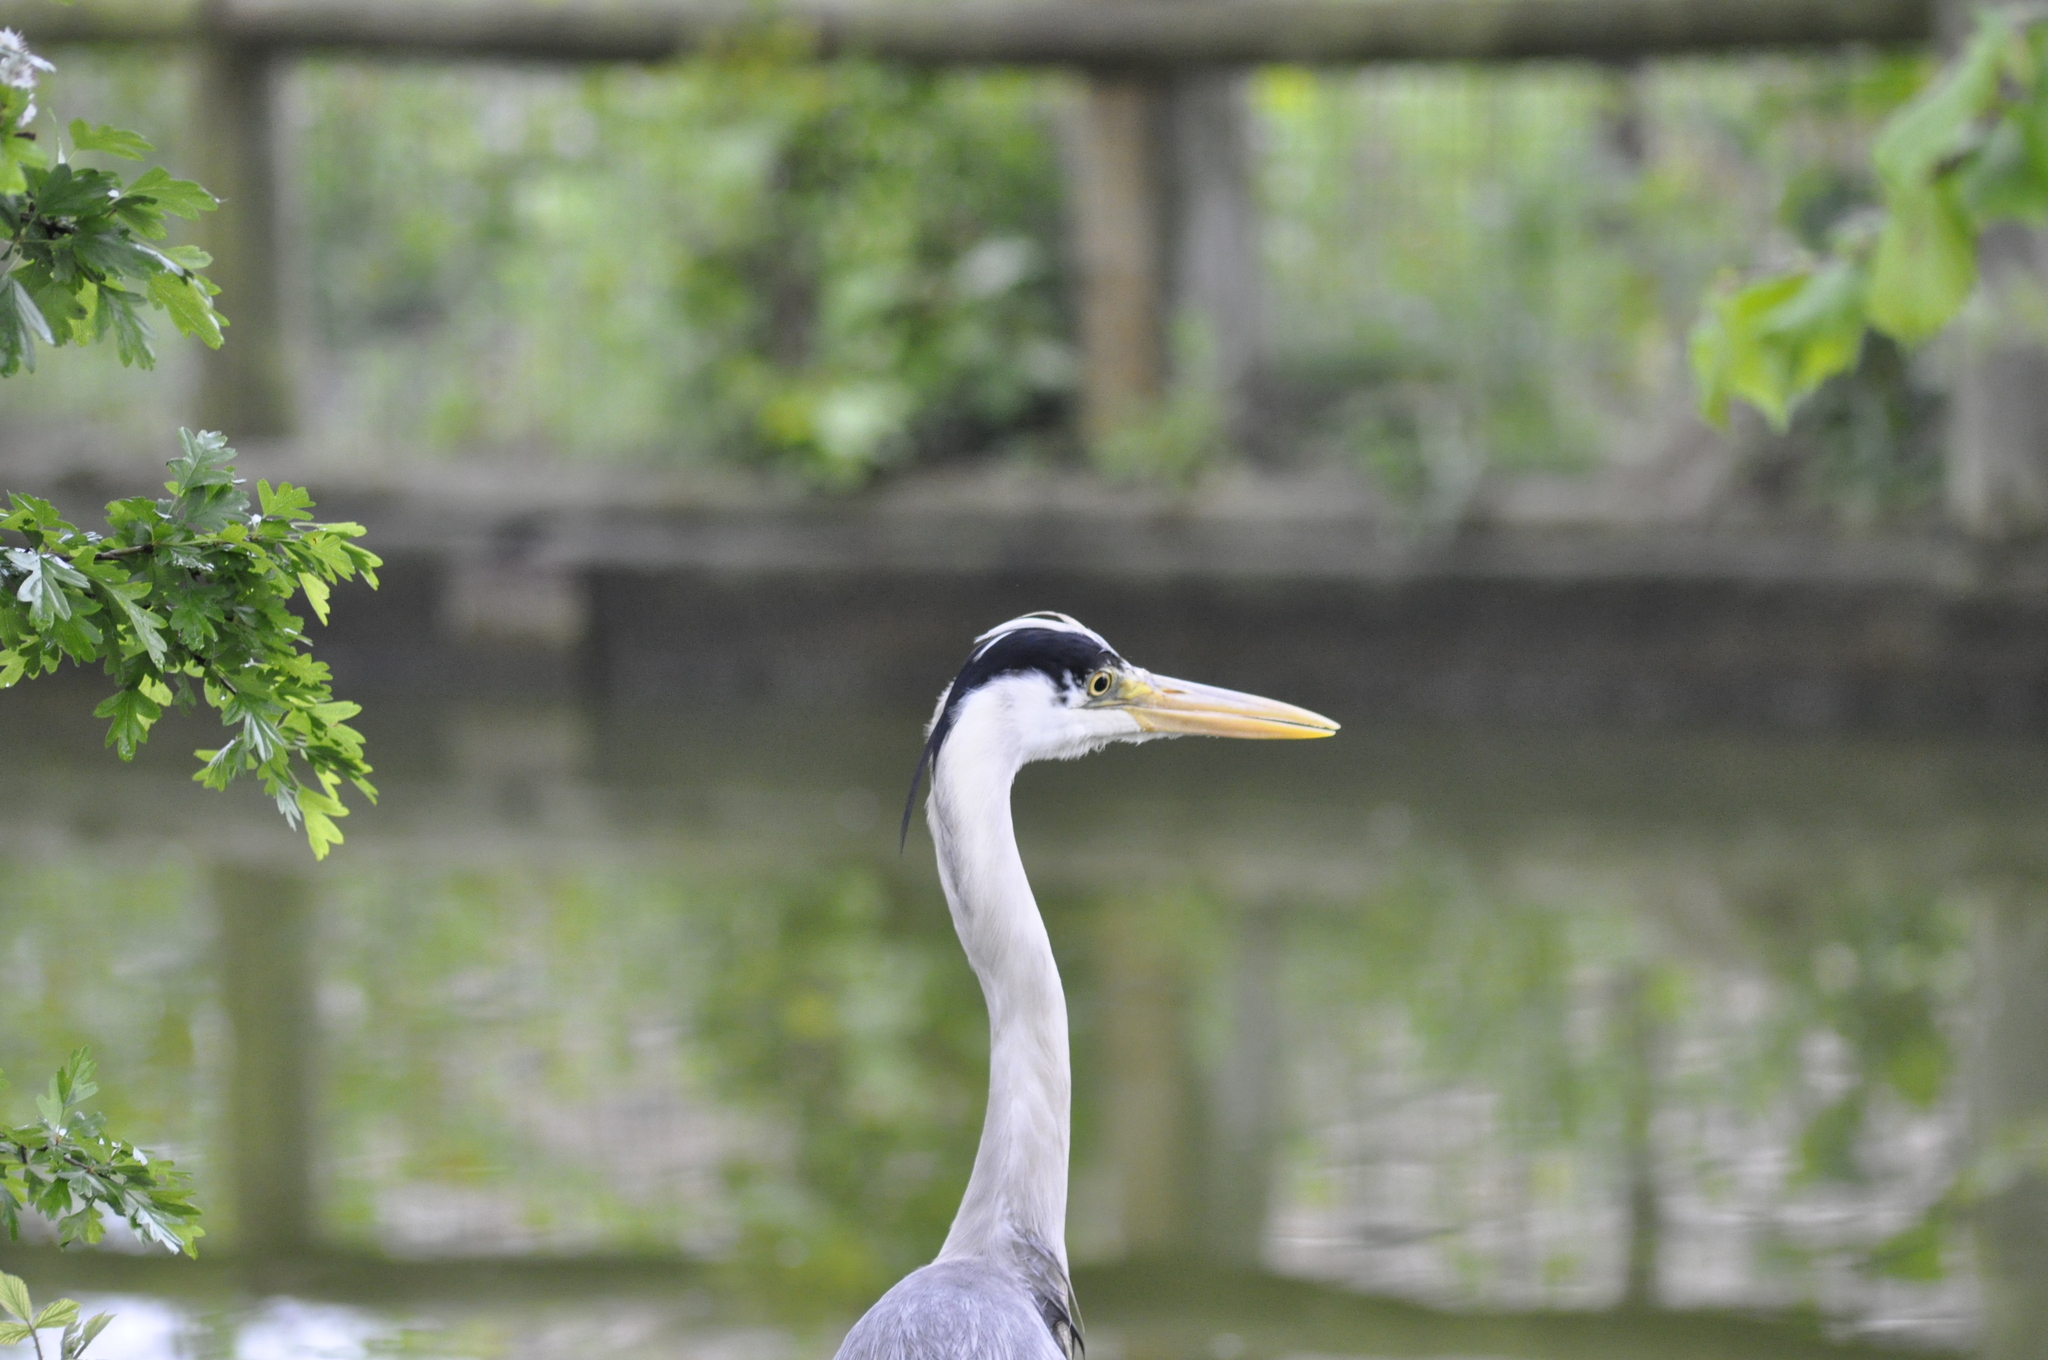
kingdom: Animalia
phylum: Chordata
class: Aves
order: Pelecaniformes
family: Ardeidae
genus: Ardea
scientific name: Ardea cinerea
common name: Grey heron
